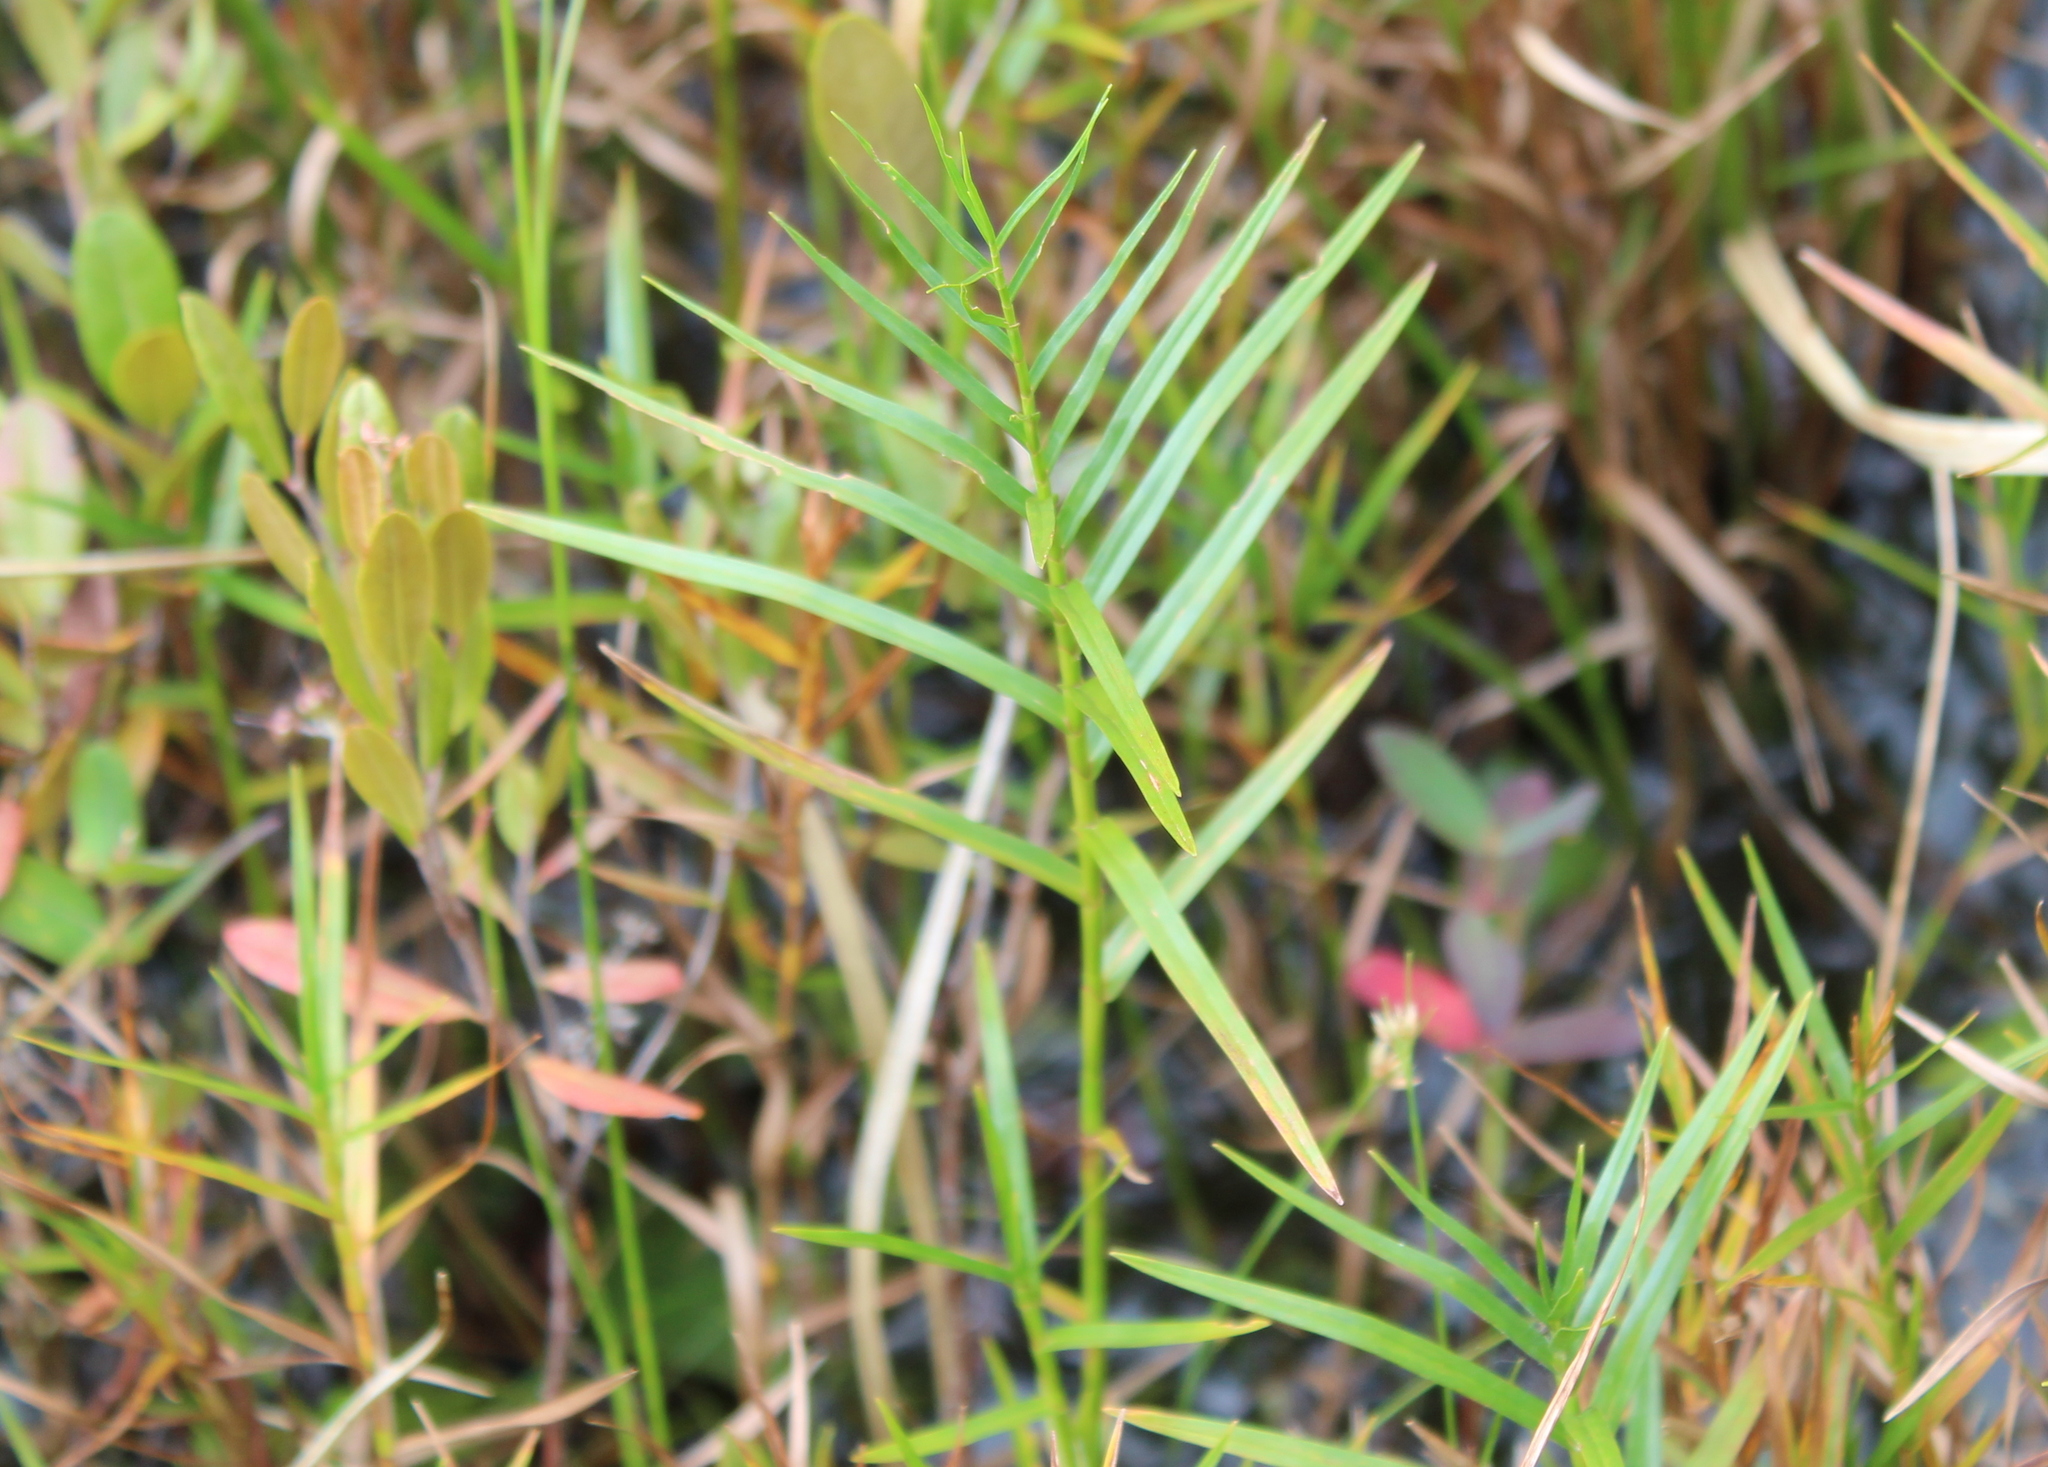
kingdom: Plantae
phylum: Tracheophyta
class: Liliopsida
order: Poales
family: Cyperaceae
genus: Dulichium
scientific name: Dulichium arundinaceum
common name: Three-way sedge
